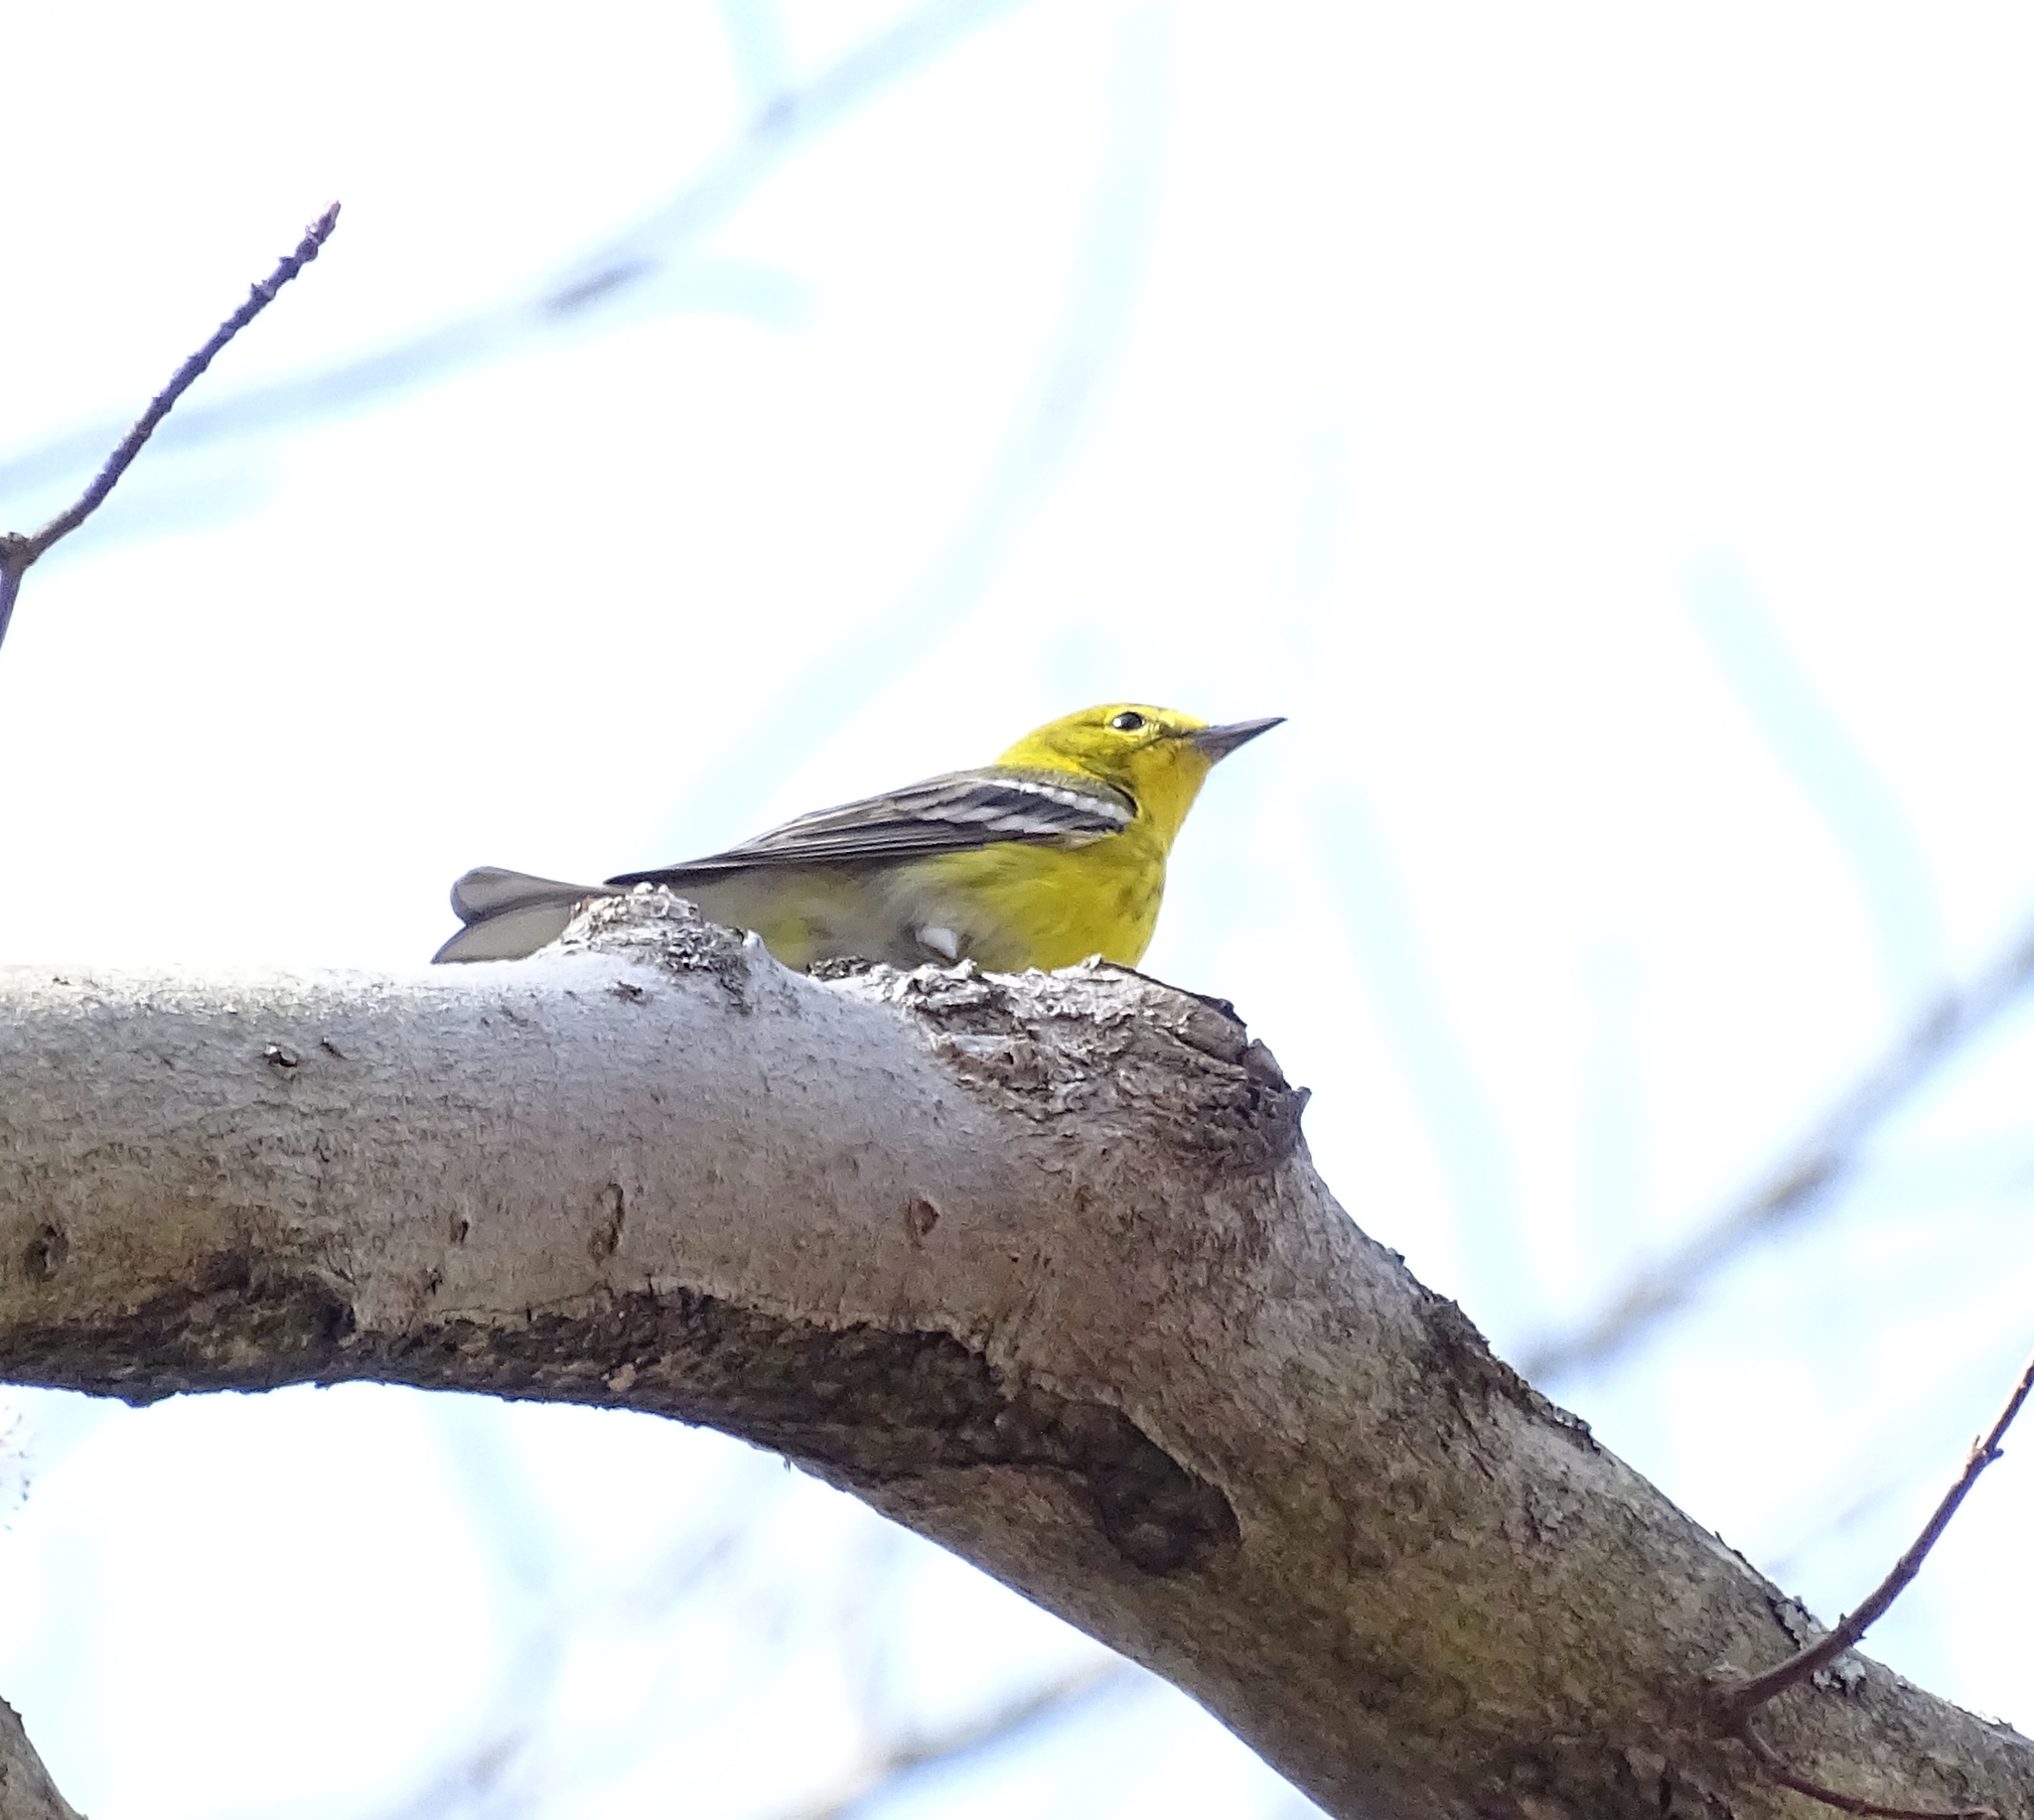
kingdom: Animalia
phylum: Chordata
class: Aves
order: Passeriformes
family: Parulidae
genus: Setophaga
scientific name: Setophaga pinus
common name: Pine warbler
